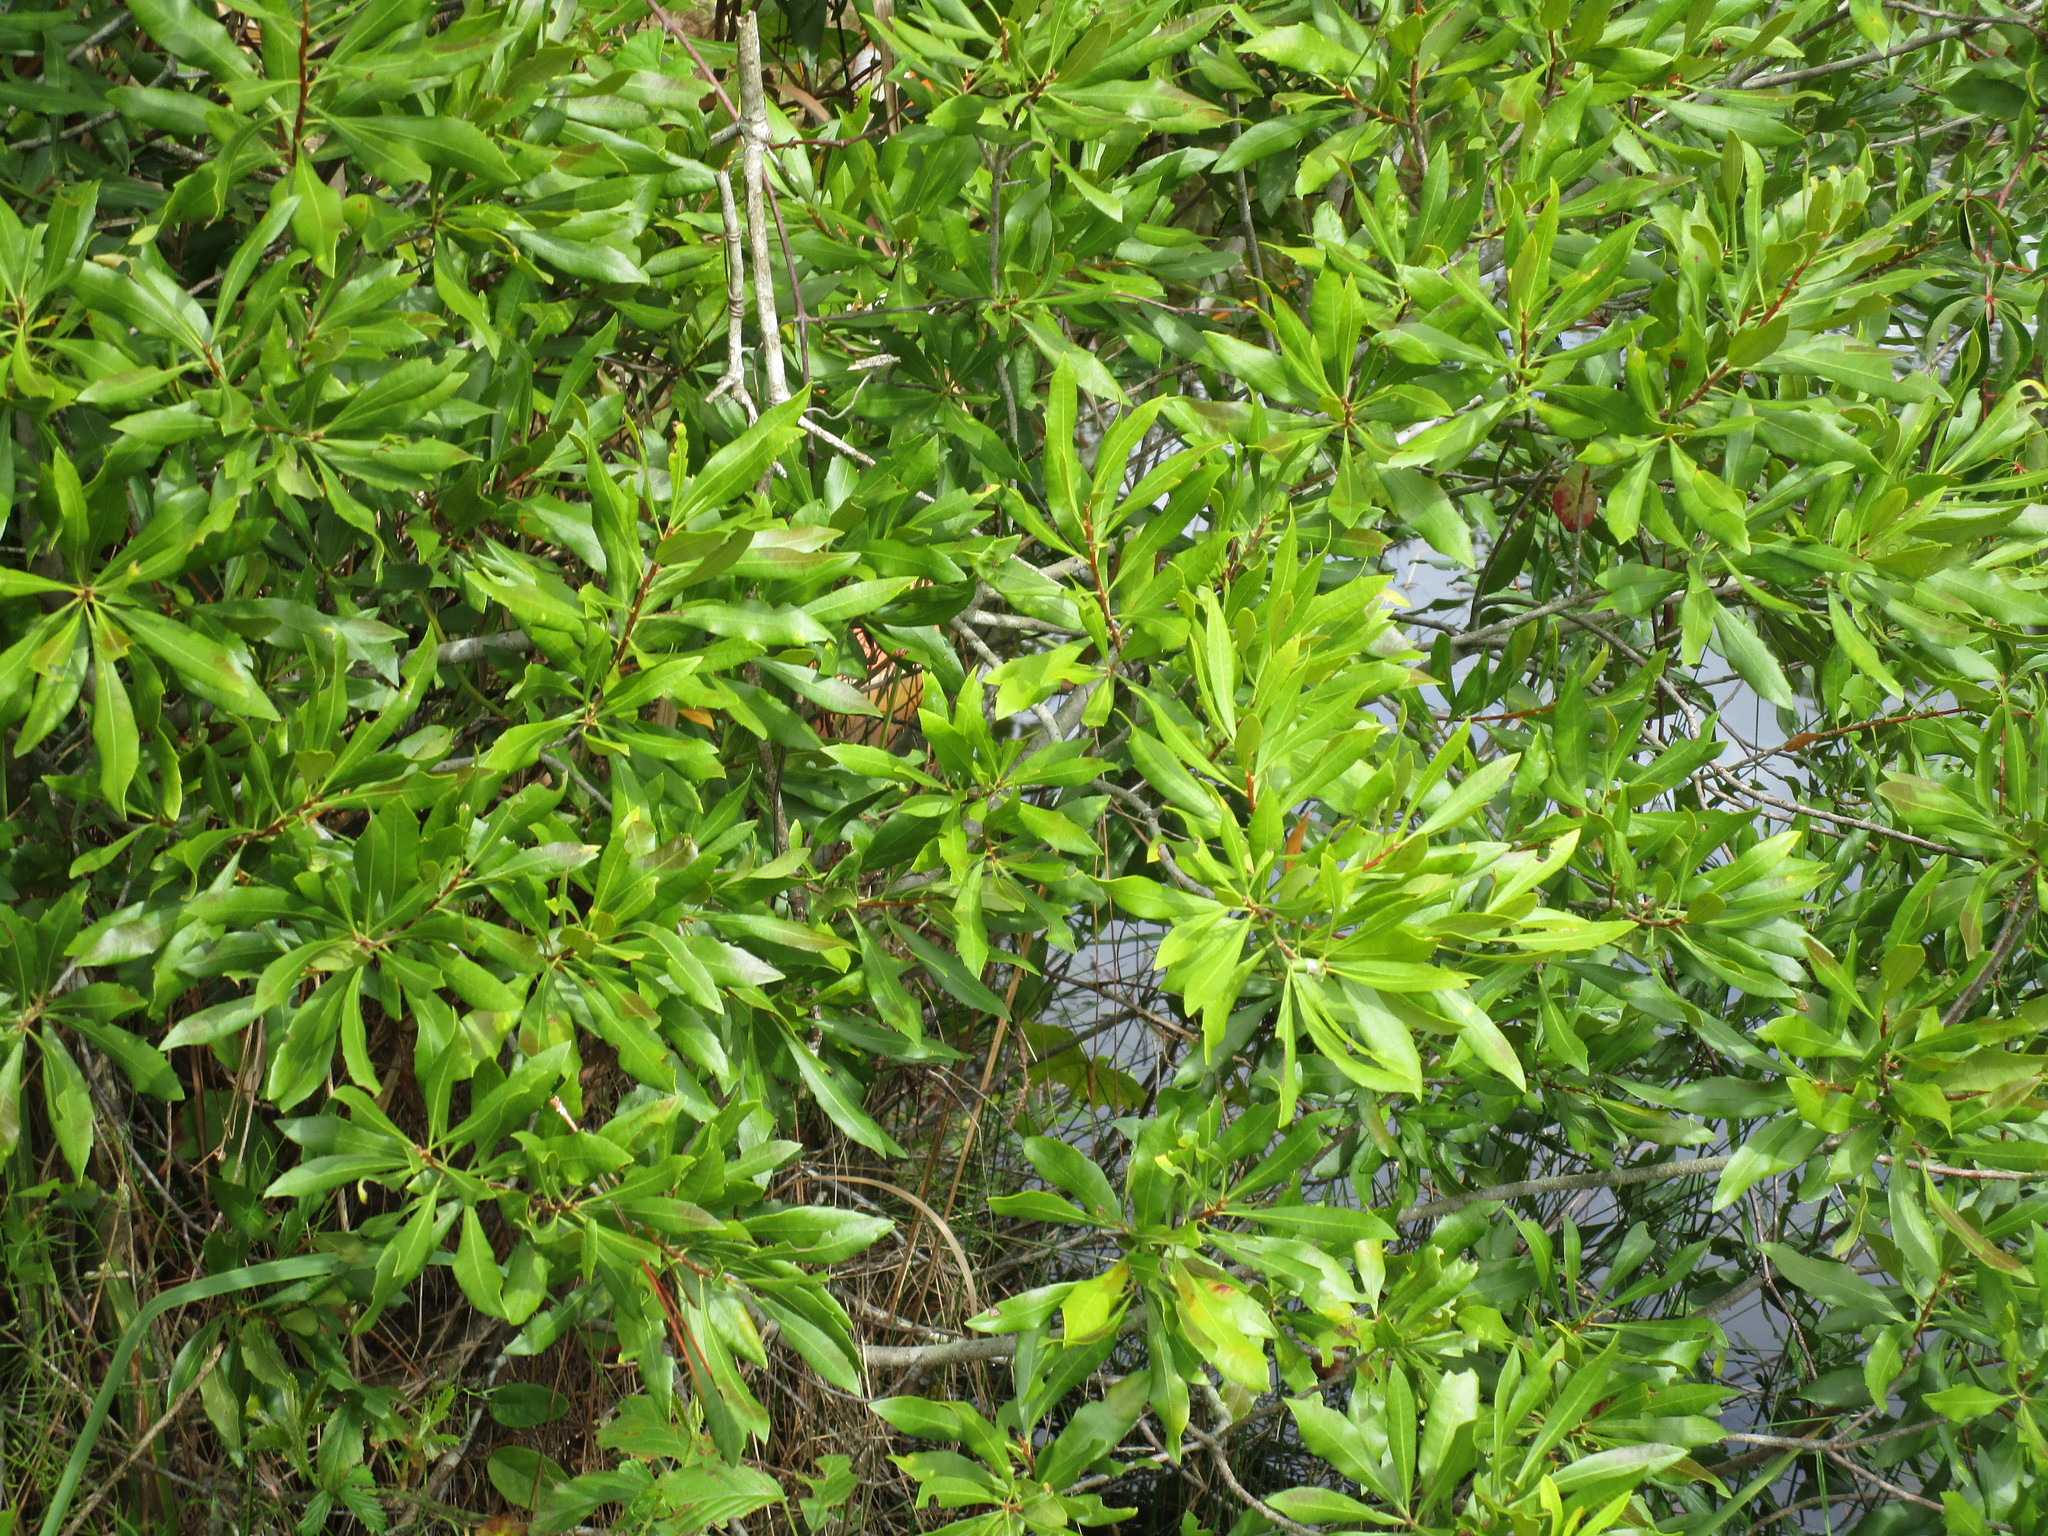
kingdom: Plantae
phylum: Tracheophyta
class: Magnoliopsida
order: Fagales
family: Myricaceae
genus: Morella
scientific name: Morella cerifera
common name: Wax myrtle
